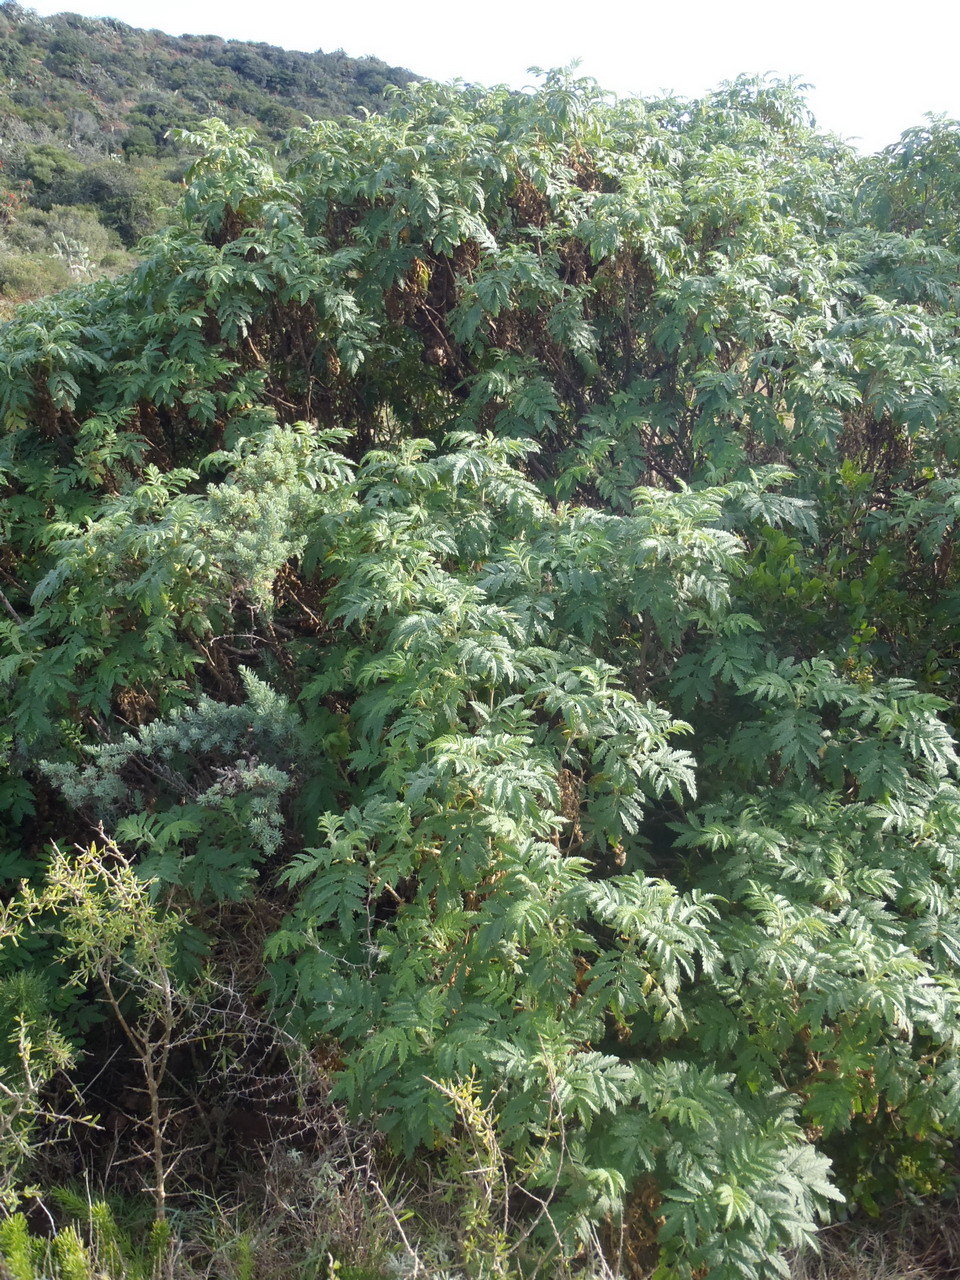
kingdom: Plantae
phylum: Tracheophyta
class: Magnoliopsida
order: Geraniales
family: Melianthaceae
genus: Melianthus
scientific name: Melianthus comosus
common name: Touch-me-not
